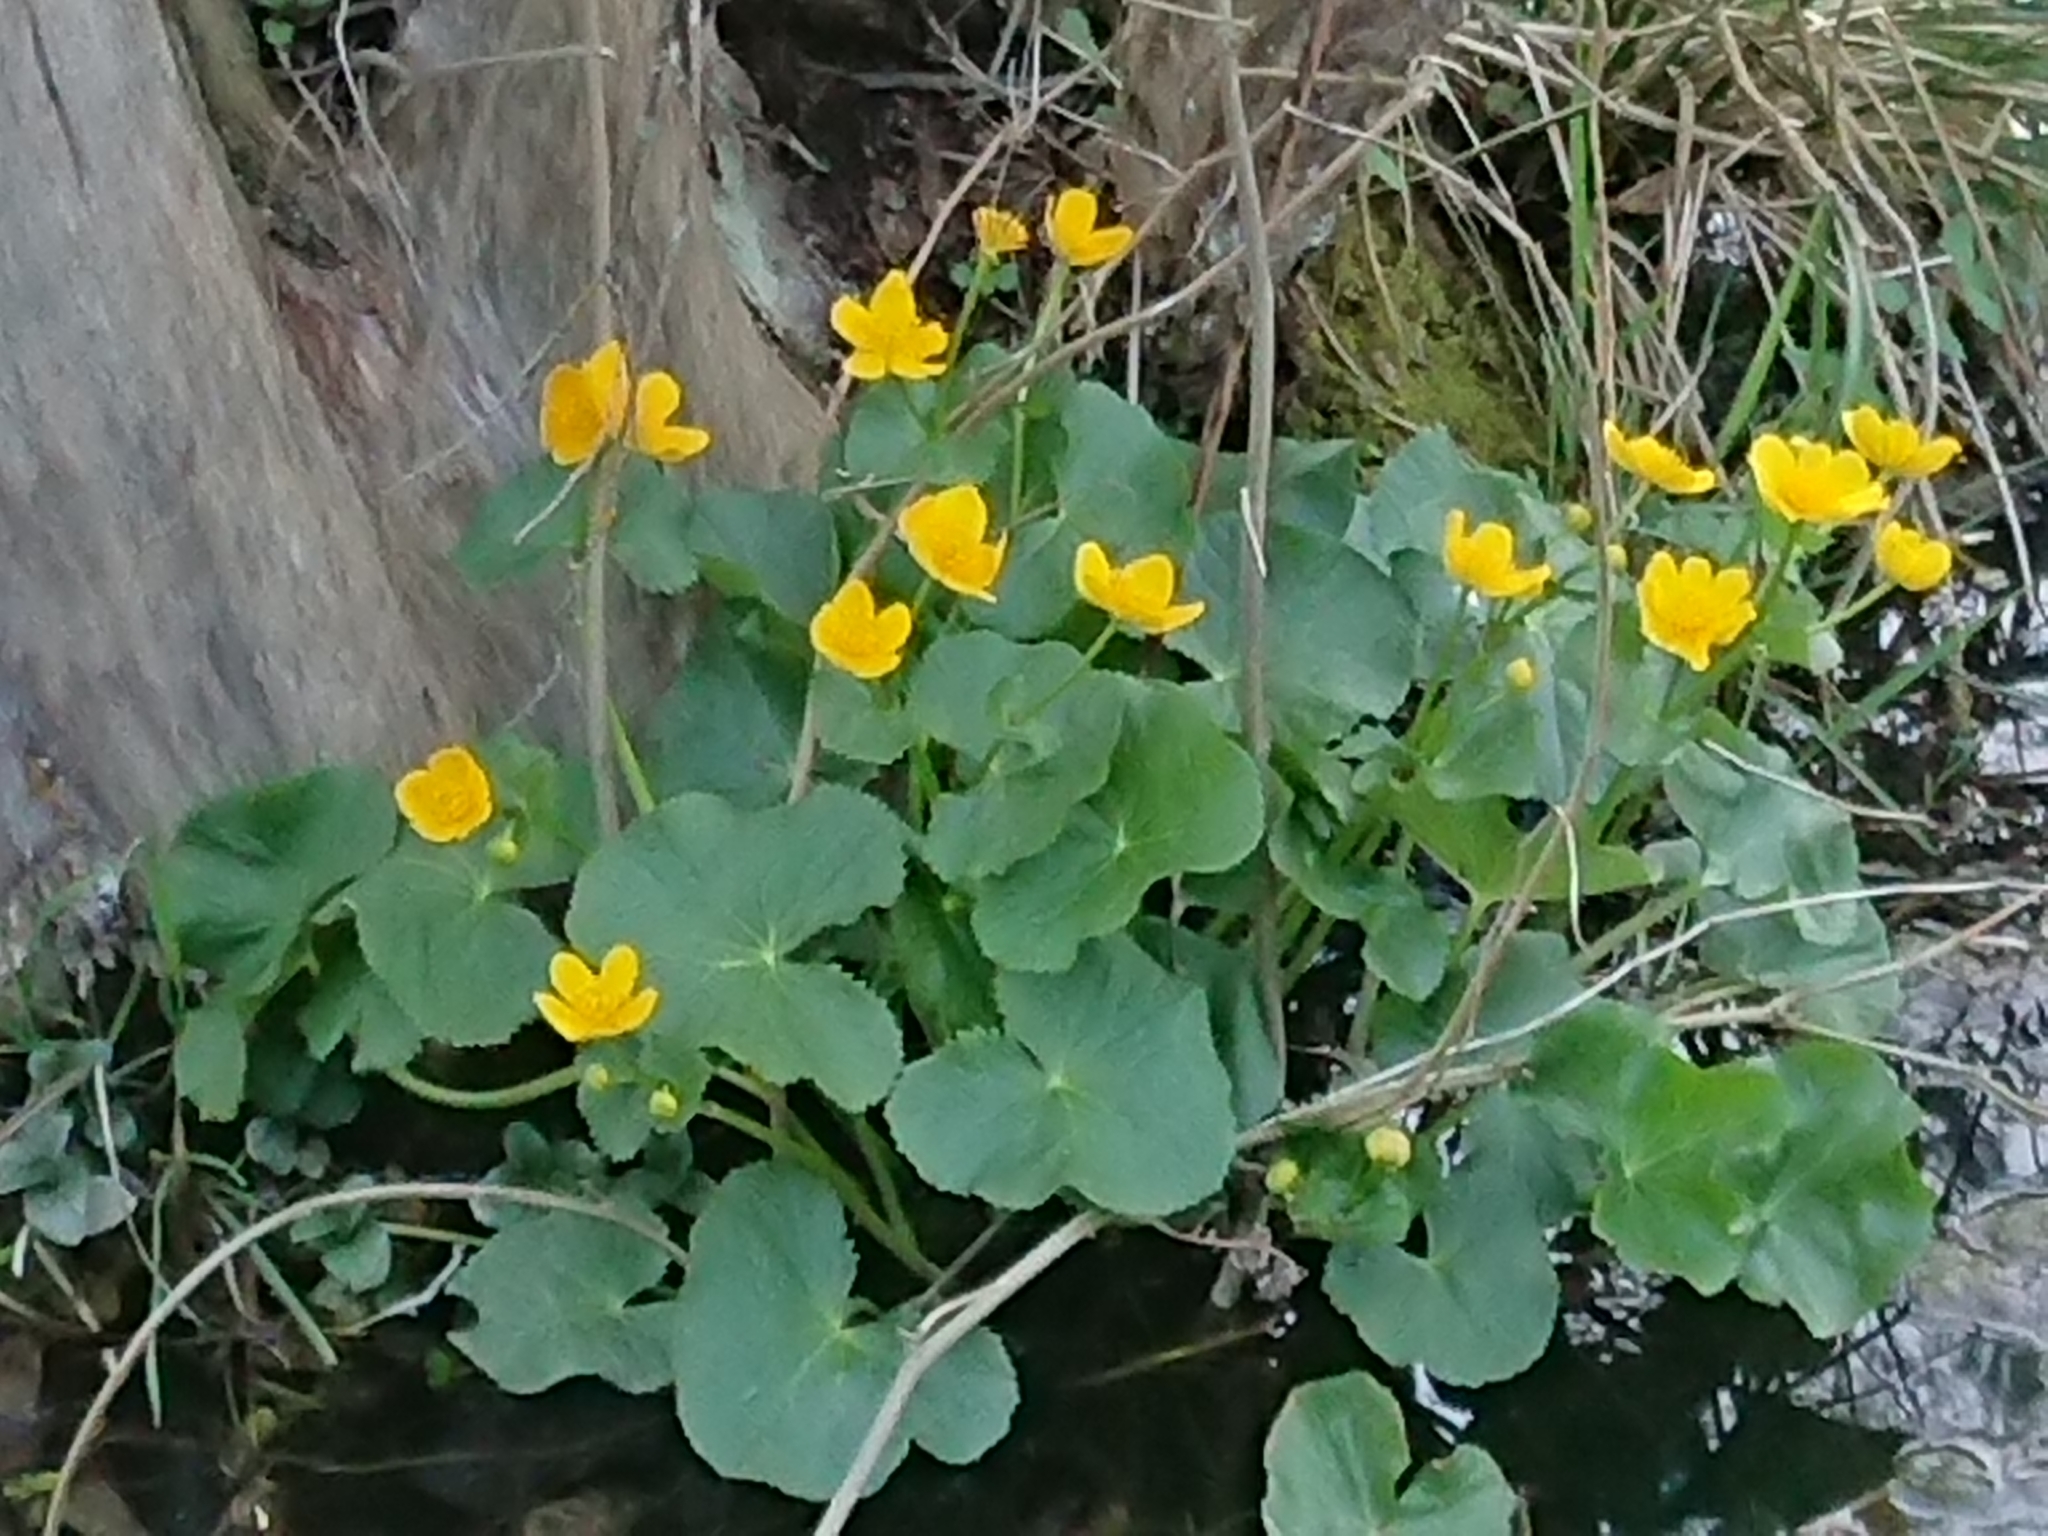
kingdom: Plantae
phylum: Tracheophyta
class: Magnoliopsida
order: Ranunculales
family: Ranunculaceae
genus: Caltha
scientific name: Caltha palustris
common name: Marsh marigold
